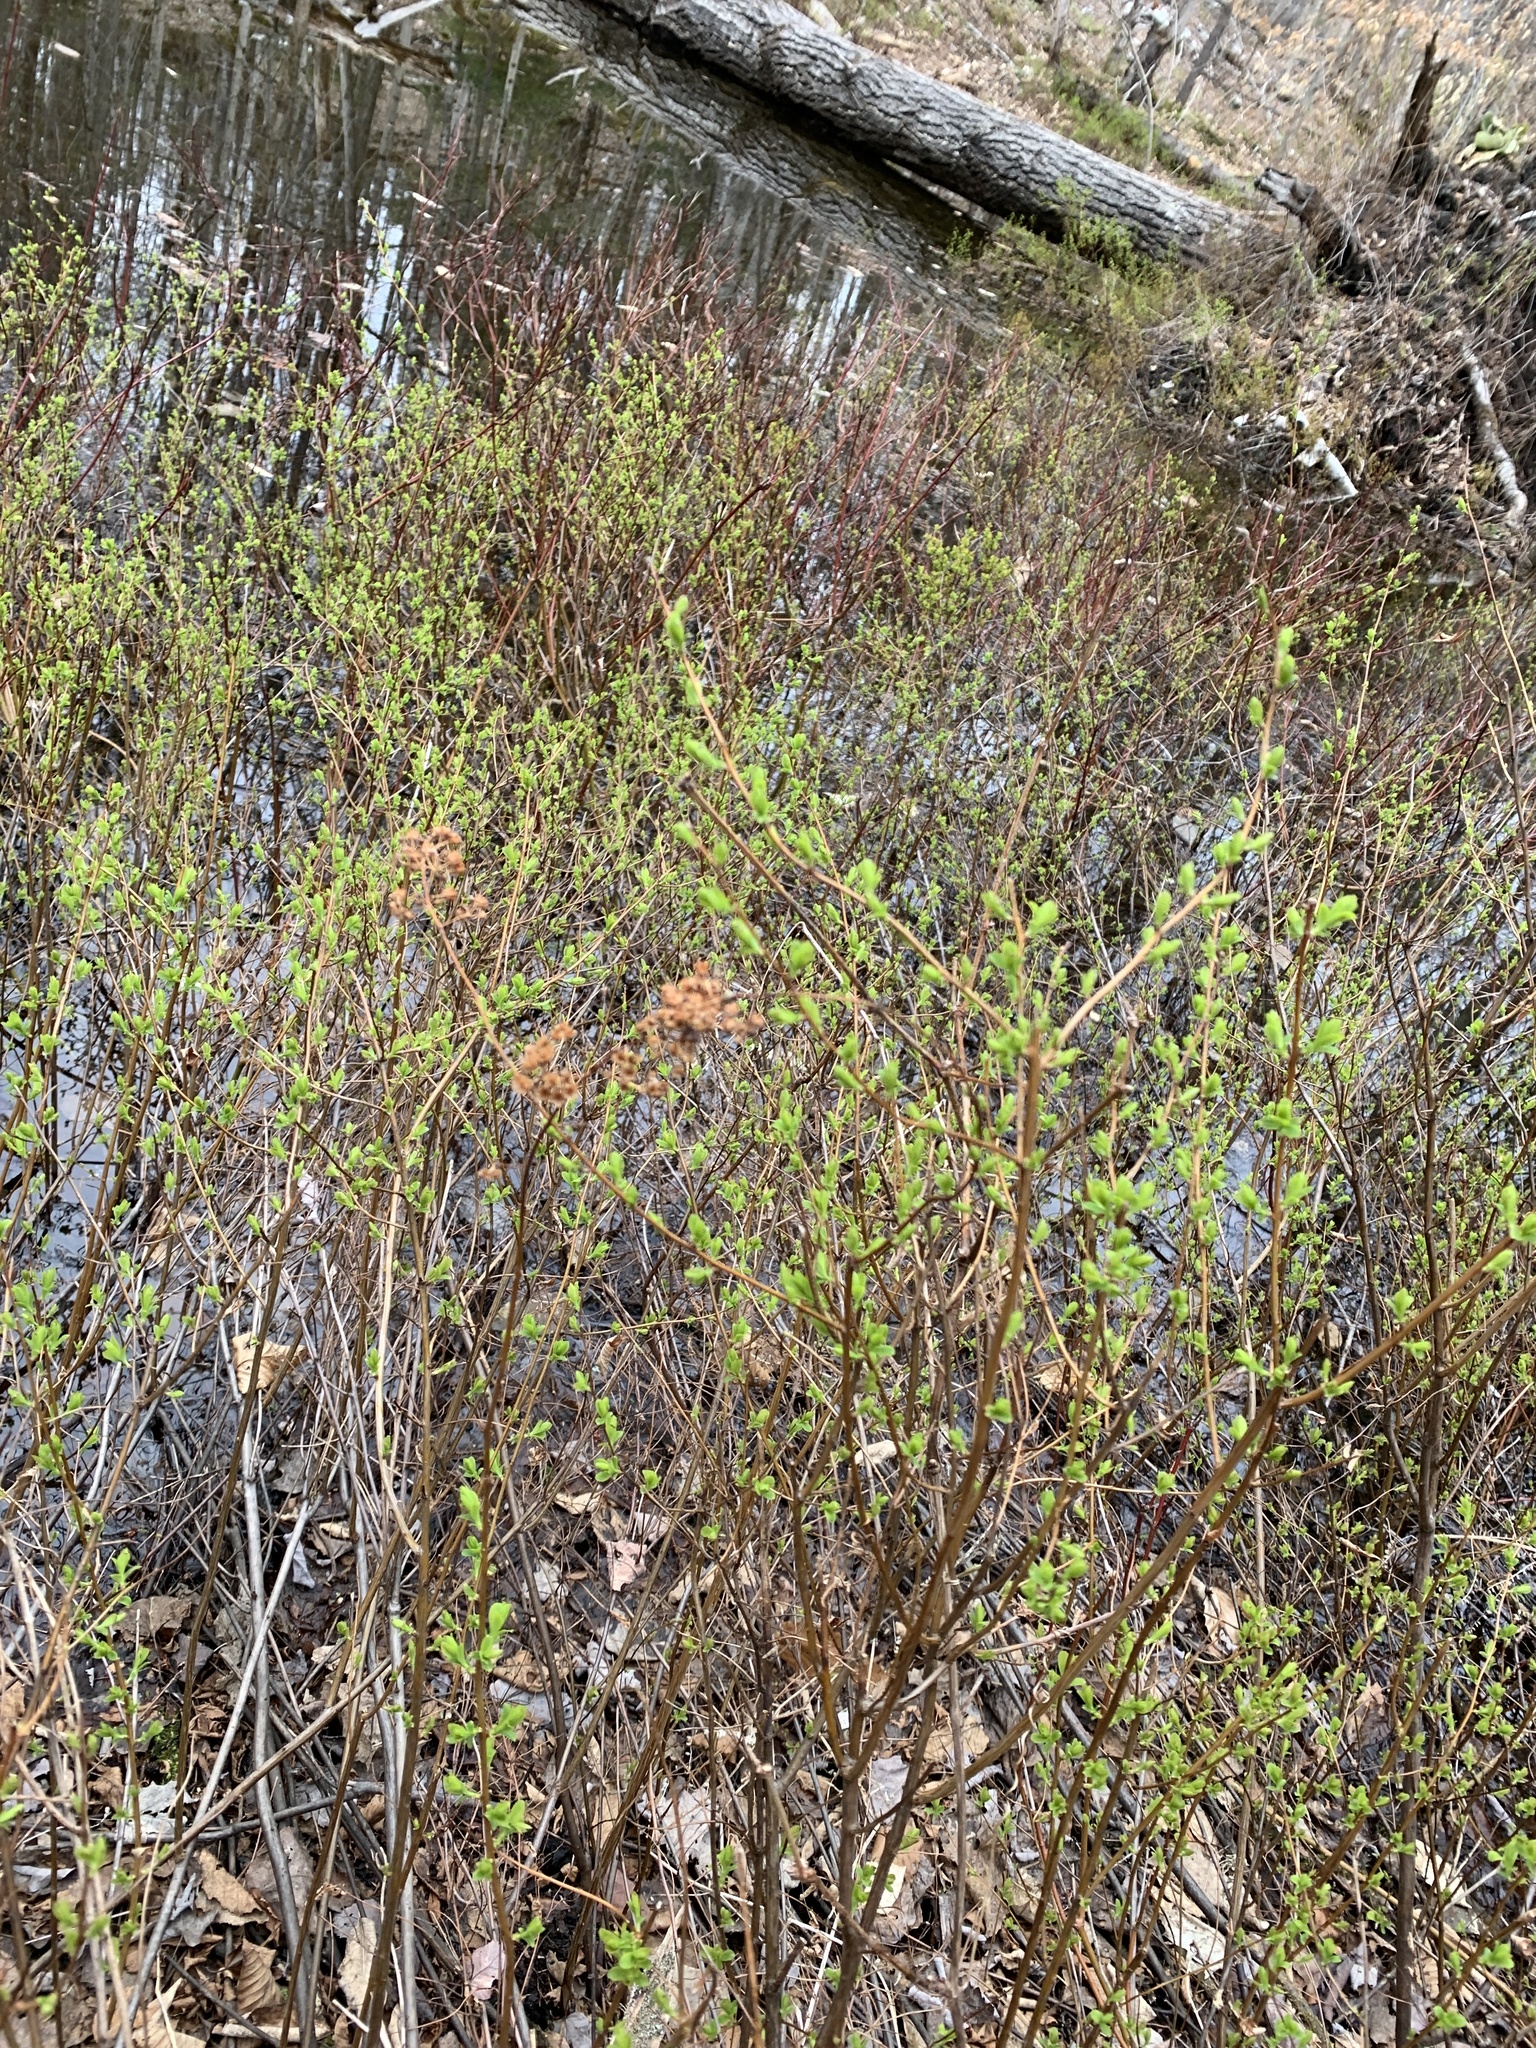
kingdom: Plantae
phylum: Tracheophyta
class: Magnoliopsida
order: Rosales
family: Rosaceae
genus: Spiraea
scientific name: Spiraea alba
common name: Pale bridewort
